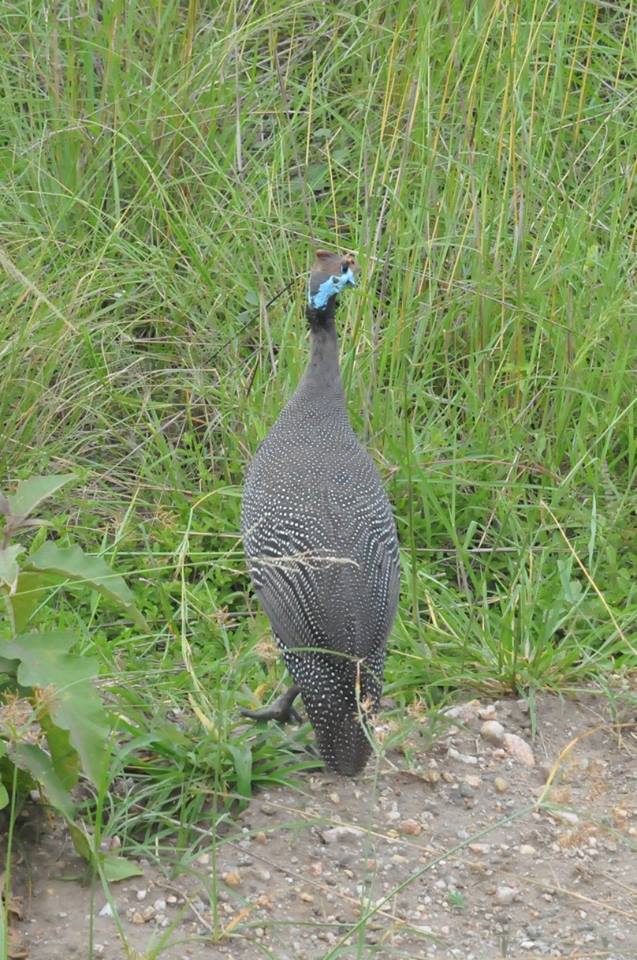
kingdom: Animalia
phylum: Chordata
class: Aves
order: Galliformes
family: Numididae
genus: Numida
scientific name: Numida meleagris
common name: Helmeted guineafowl
